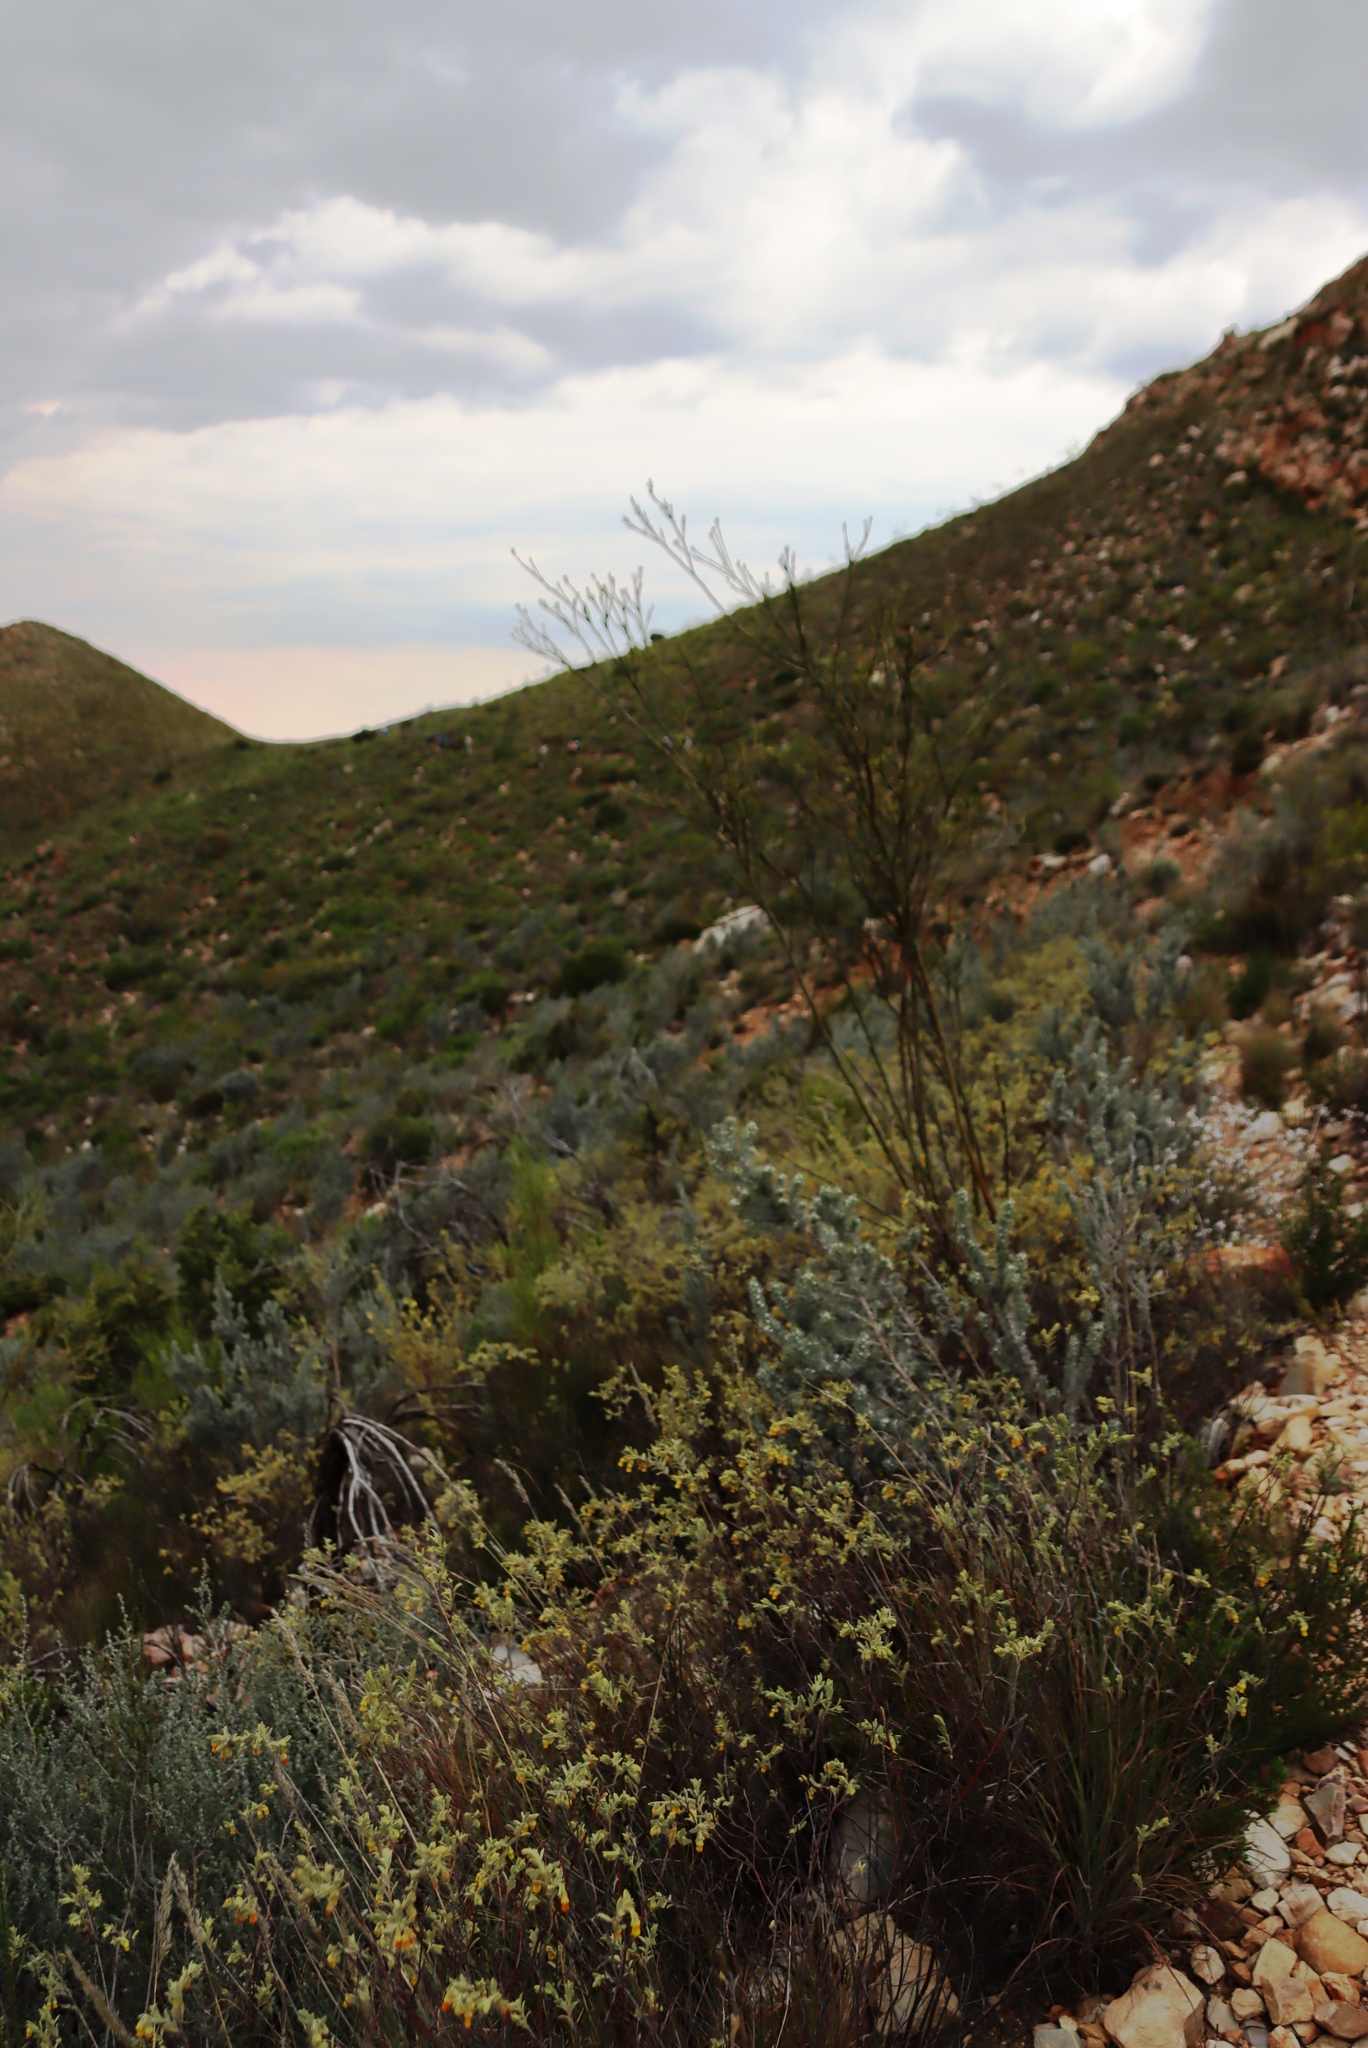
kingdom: Plantae
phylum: Tracheophyta
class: Magnoliopsida
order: Santalales
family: Thesiaceae
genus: Thesium
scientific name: Thesium strictum
